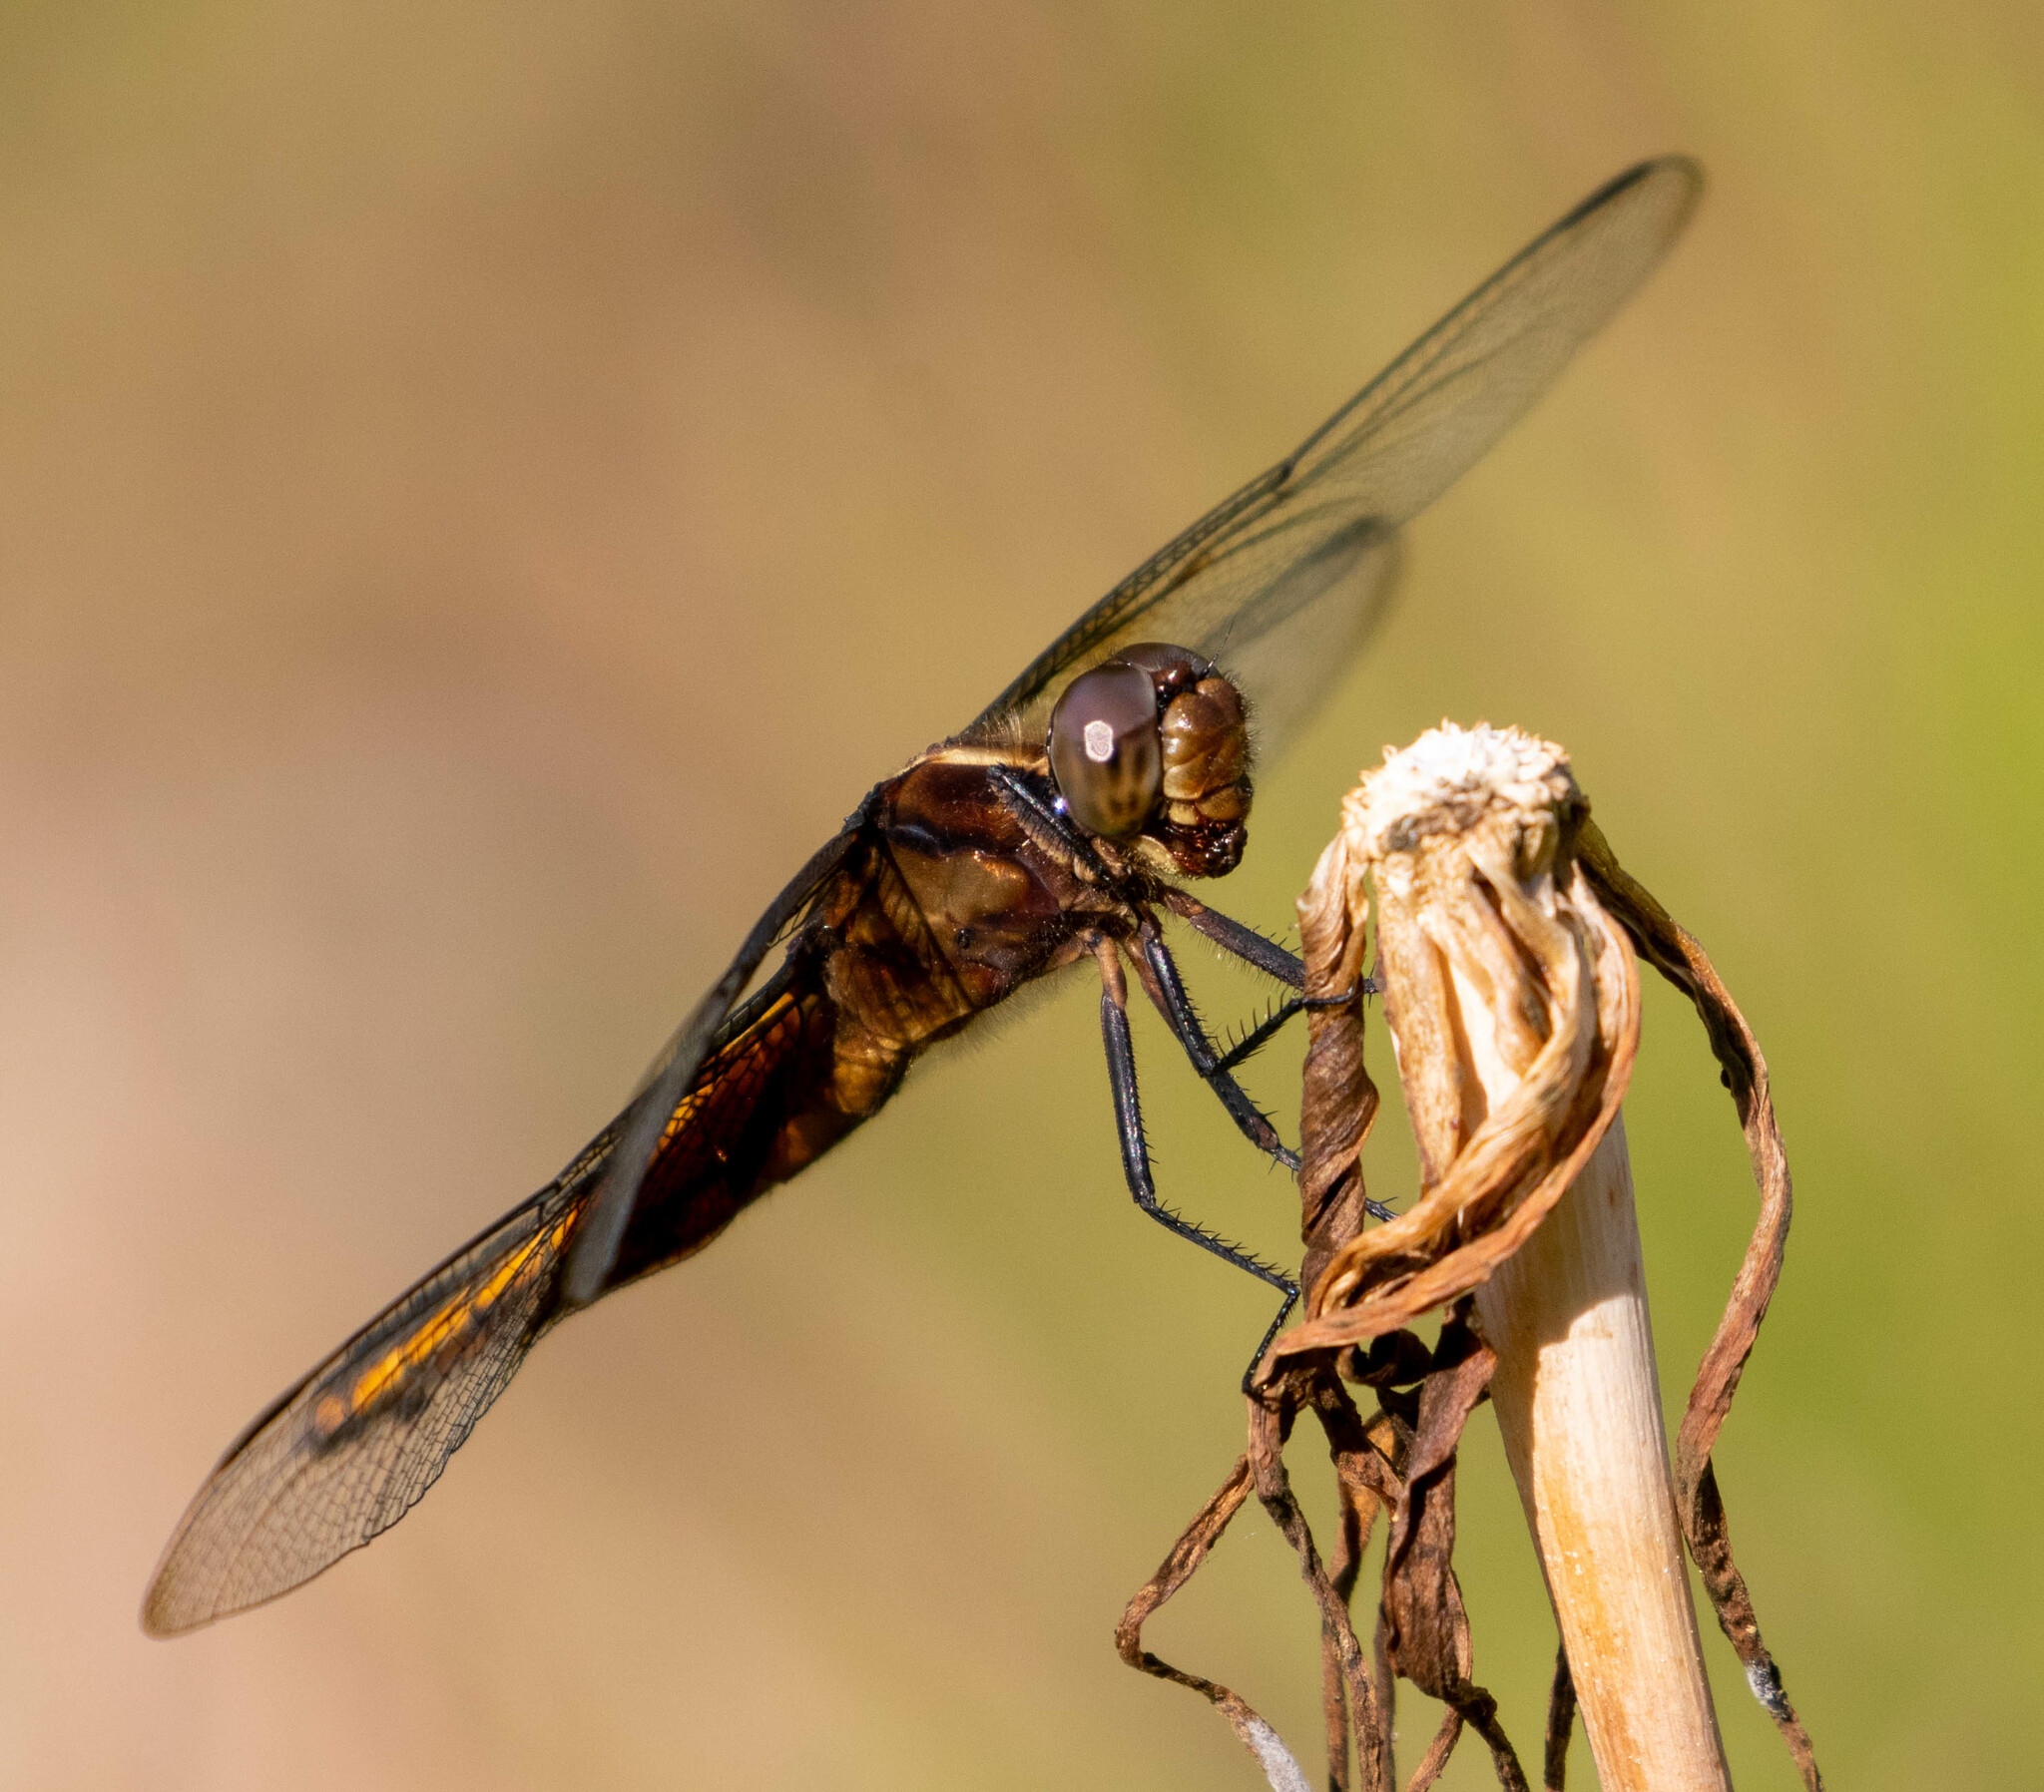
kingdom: Animalia
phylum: Arthropoda
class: Insecta
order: Odonata
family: Libellulidae
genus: Libellula
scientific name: Libellula luctuosa
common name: Widow skimmer
